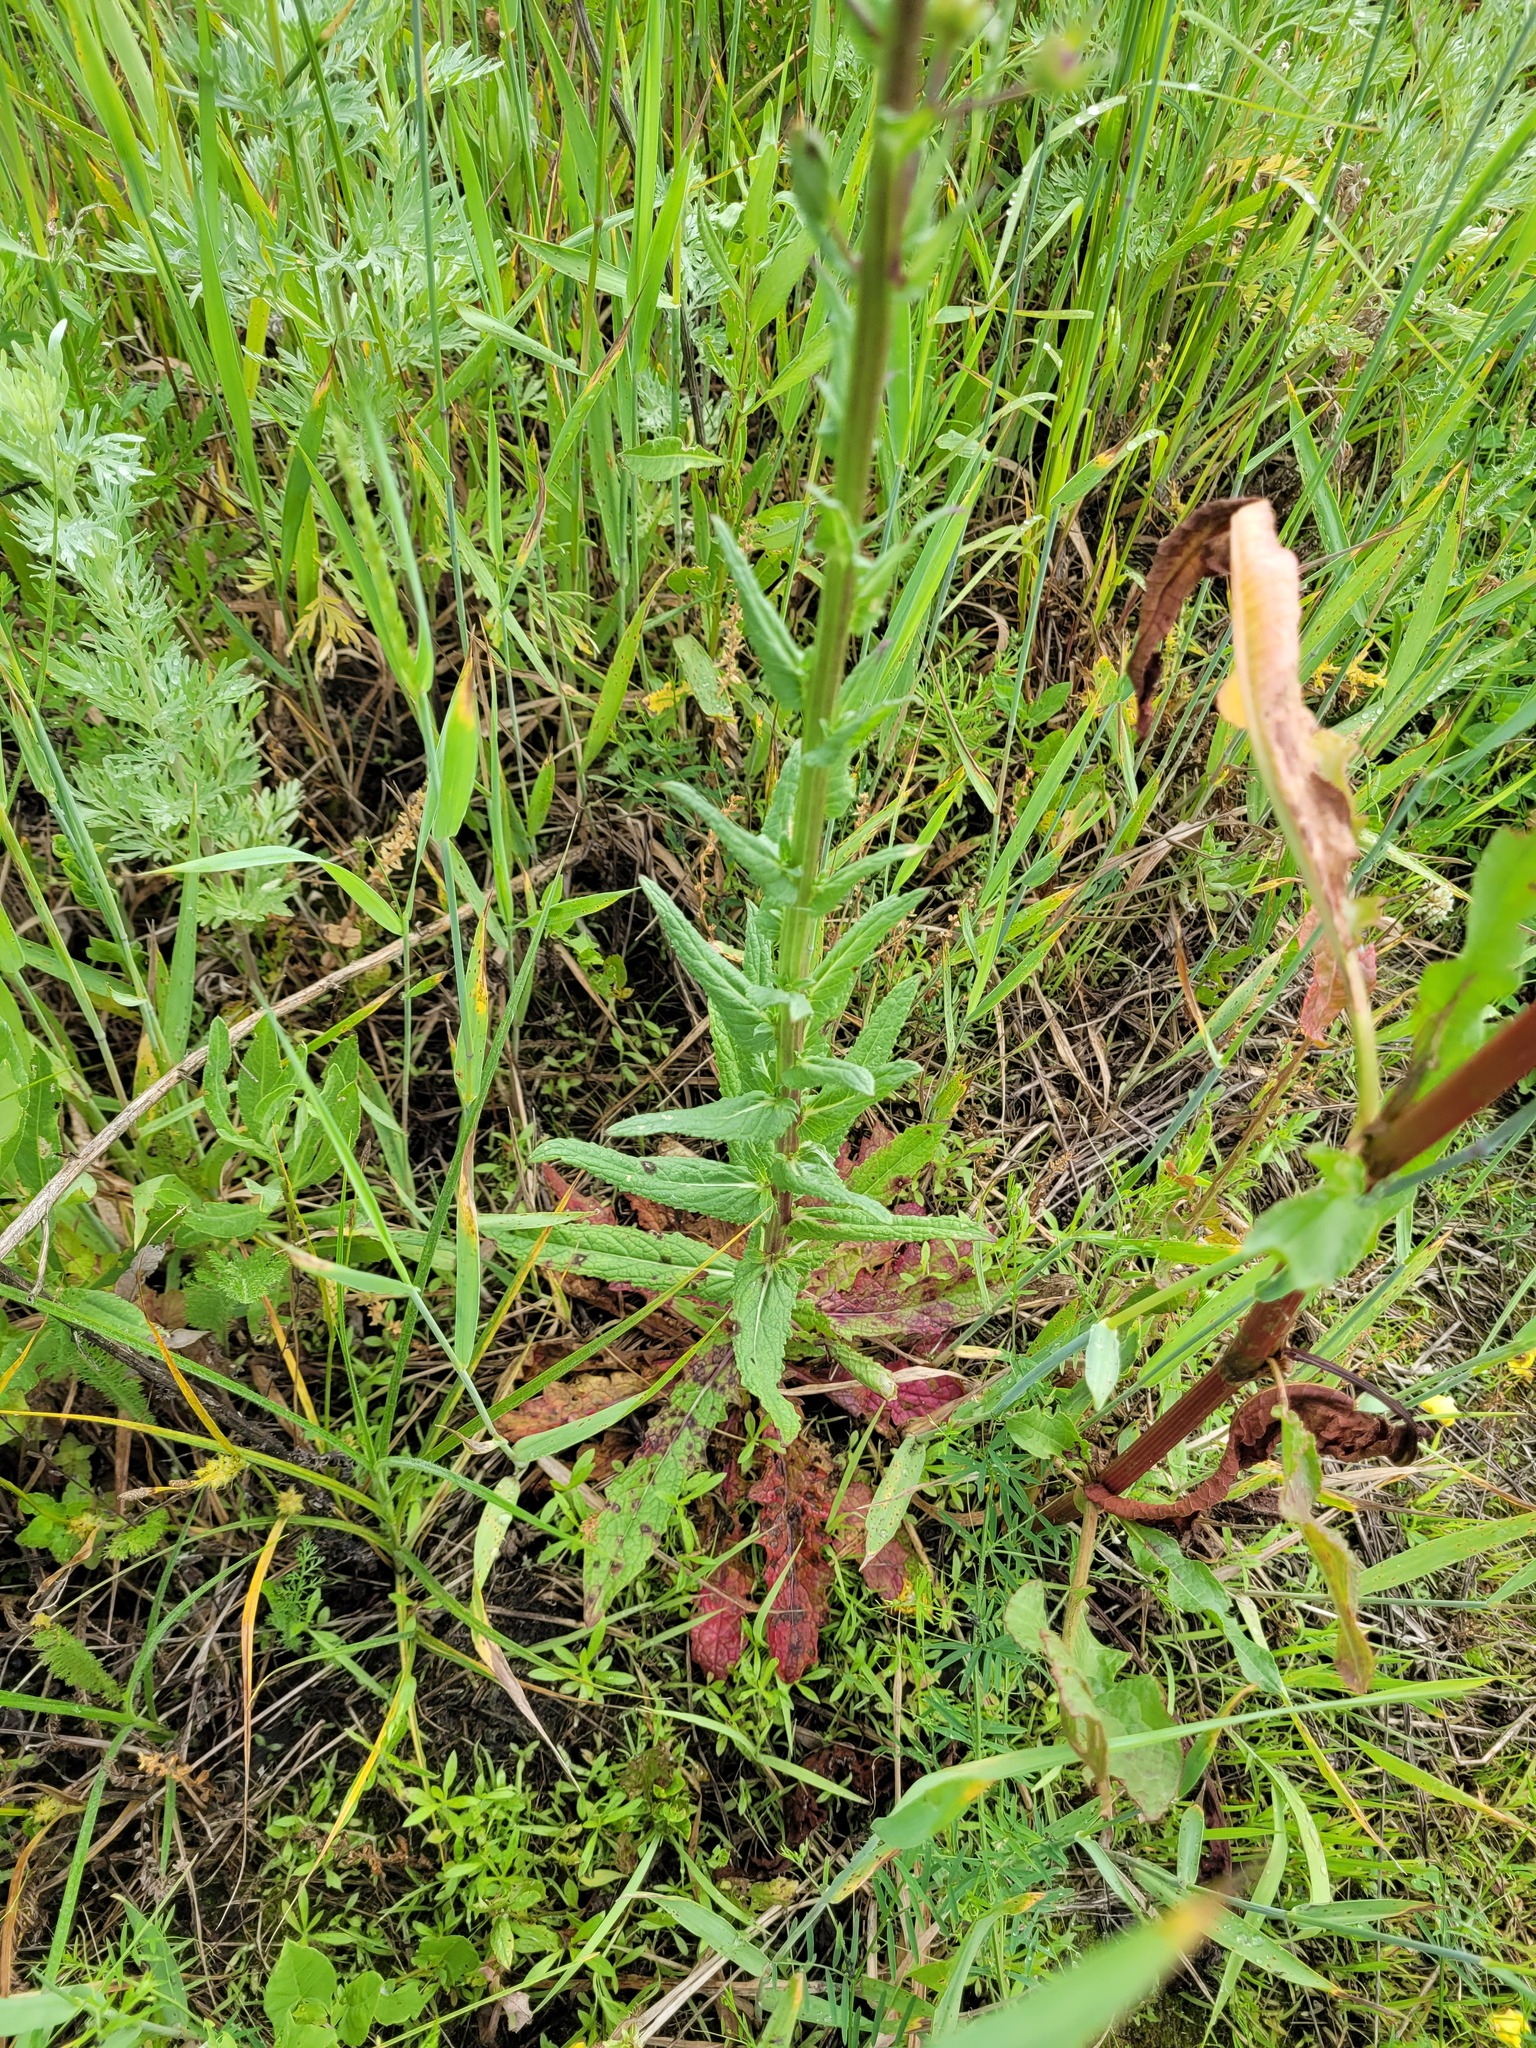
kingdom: Plantae
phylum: Tracheophyta
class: Magnoliopsida
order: Lamiales
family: Scrophulariaceae
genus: Verbascum
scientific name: Verbascum blattaria
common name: Moth mullein
